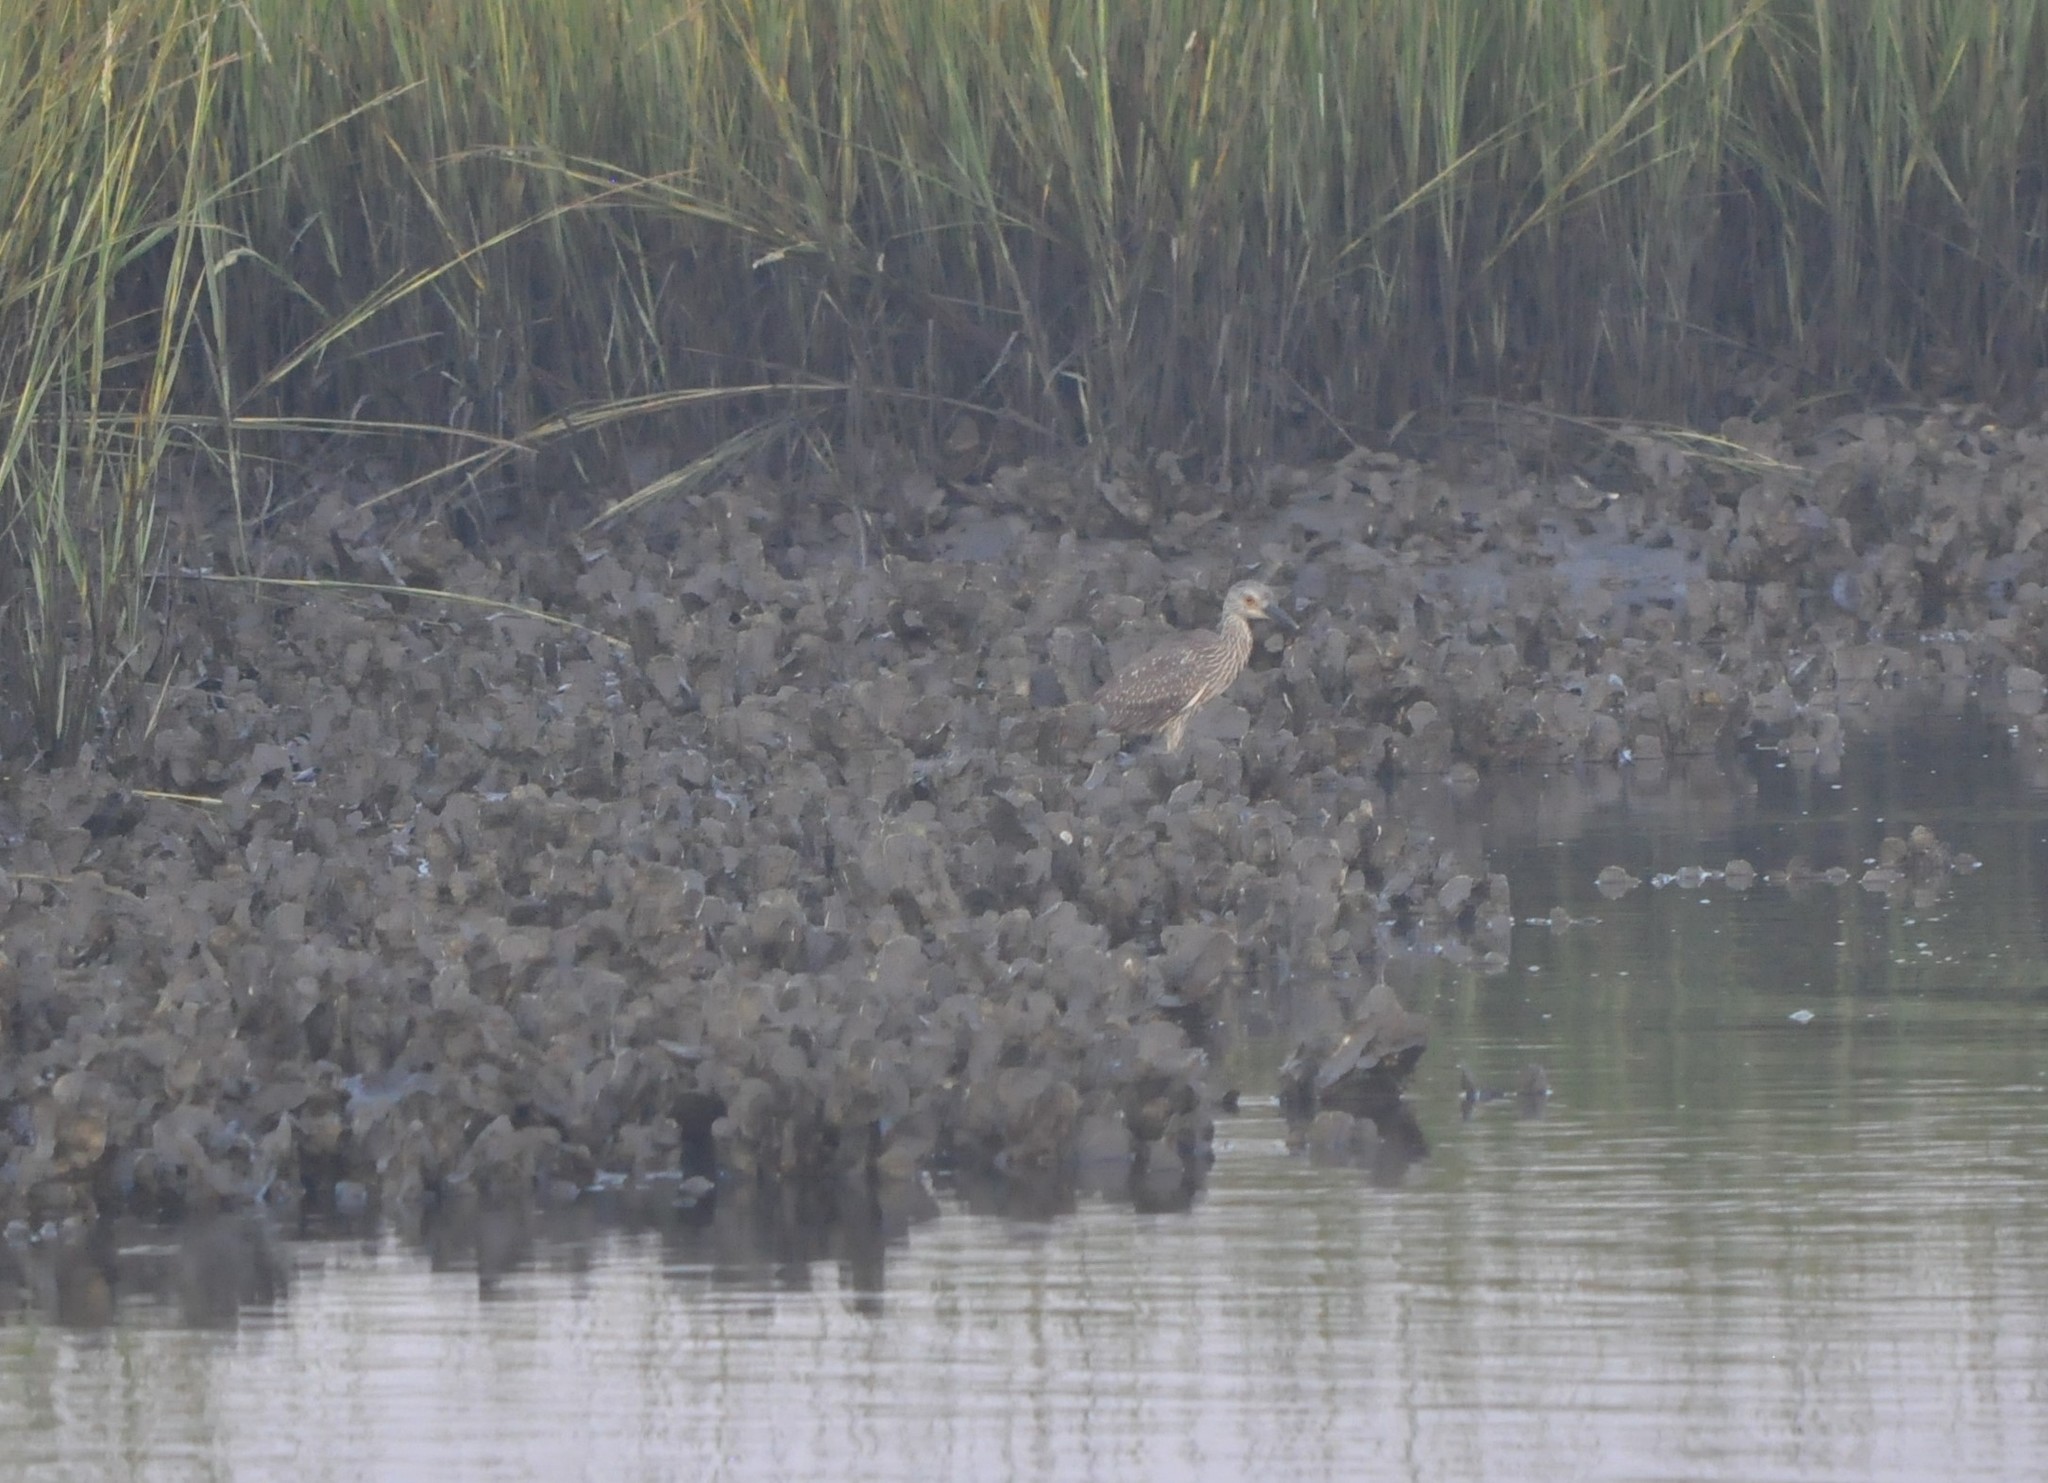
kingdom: Animalia
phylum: Chordata
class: Aves
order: Pelecaniformes
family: Ardeidae
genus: Nyctanassa
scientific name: Nyctanassa violacea
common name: Yellow-crowned night heron
